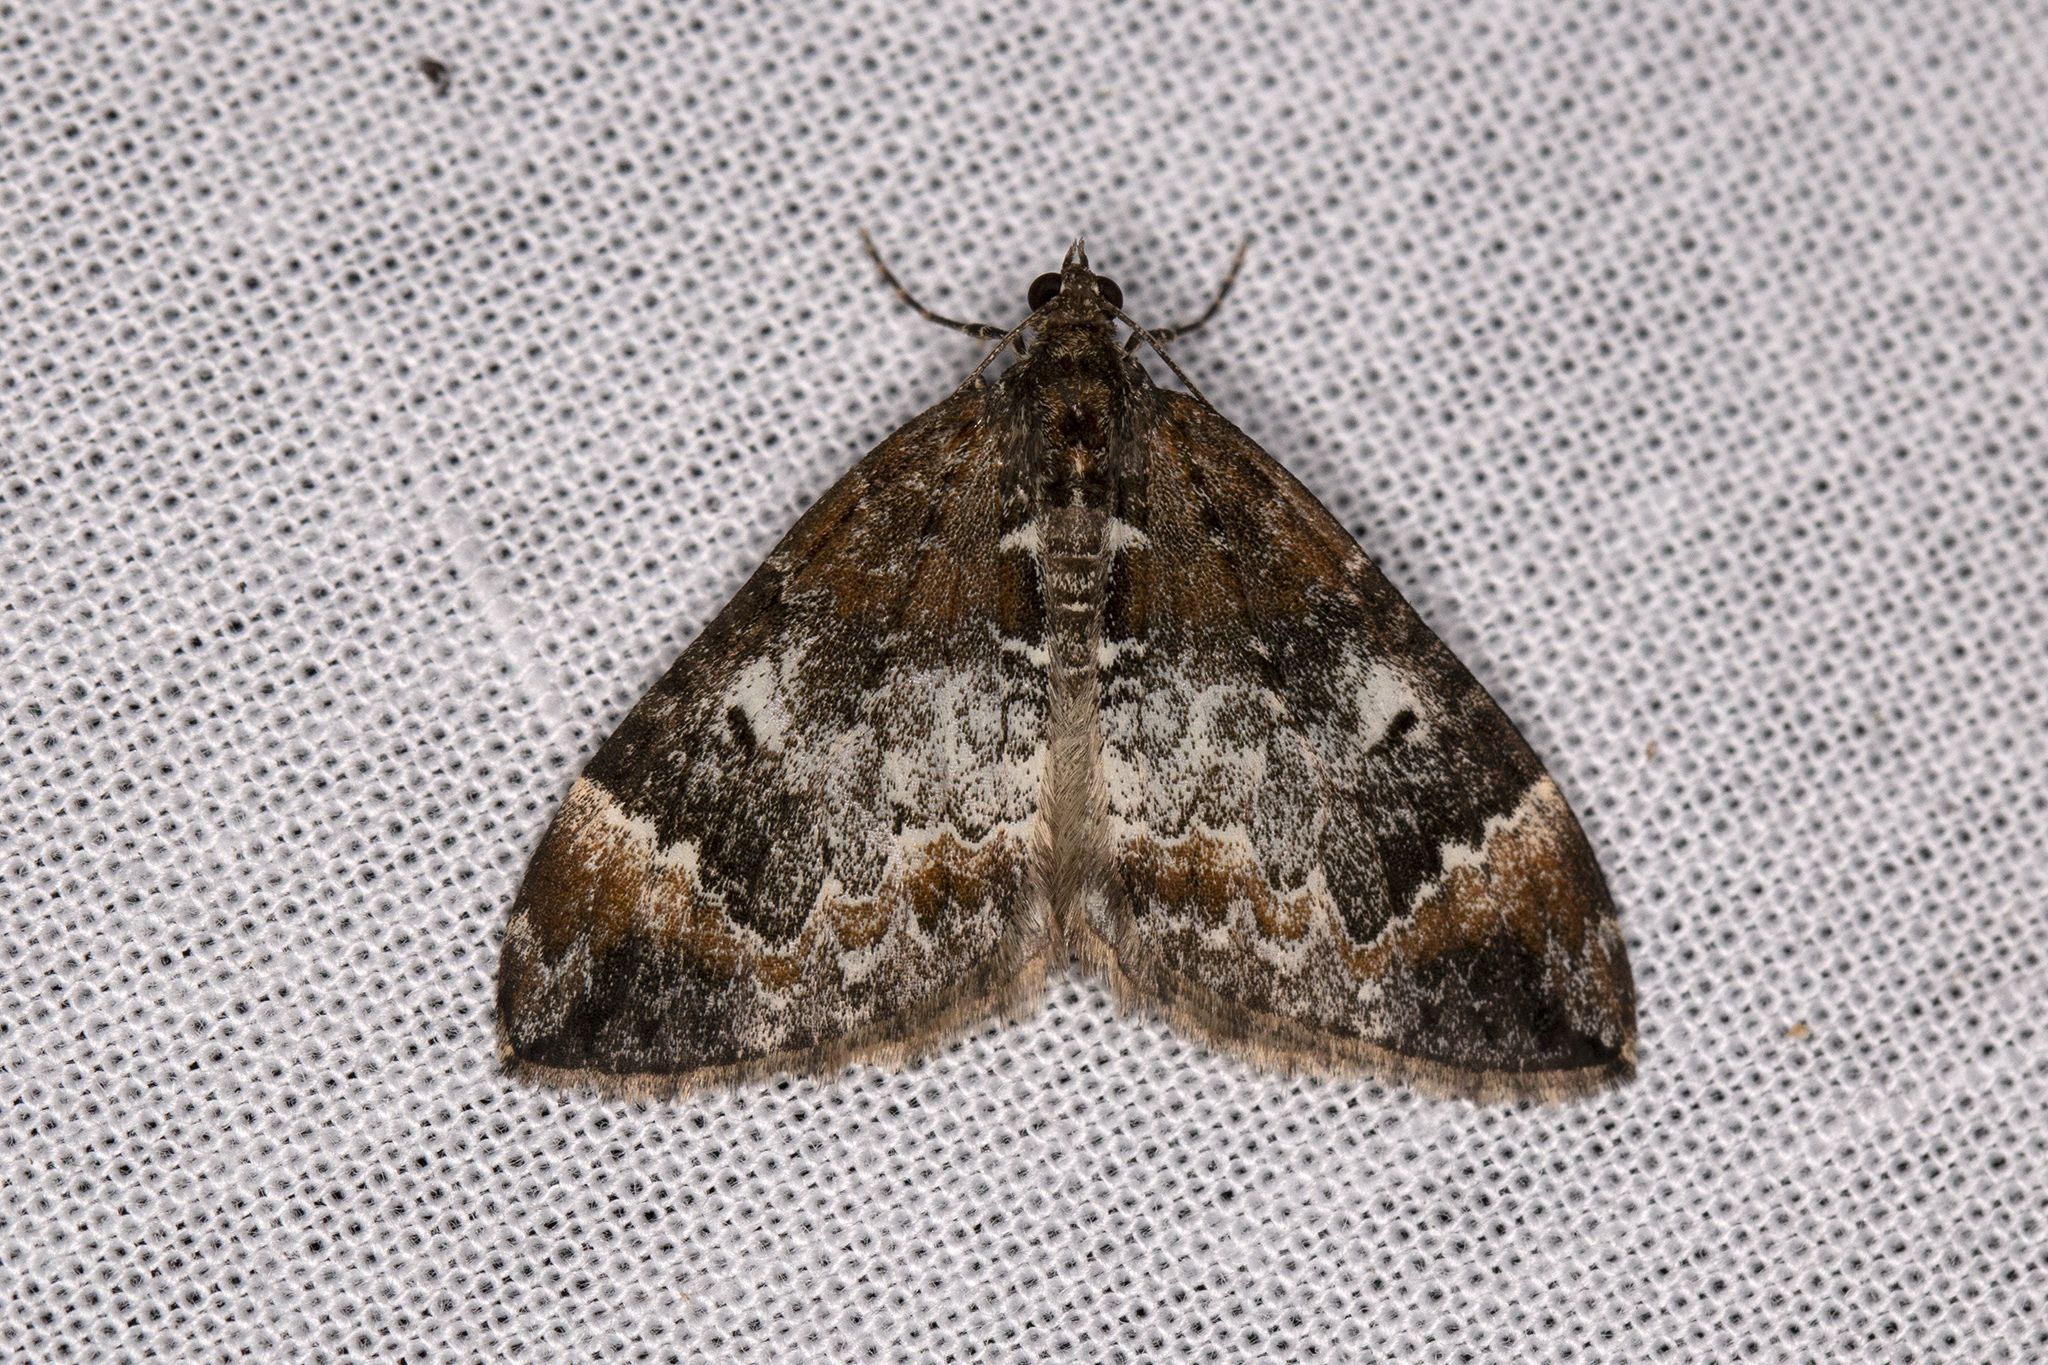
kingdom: Animalia
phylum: Arthropoda
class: Insecta
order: Lepidoptera
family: Geometridae
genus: Dysstroma
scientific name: Dysstroma citrata
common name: Dark marbled carpet
